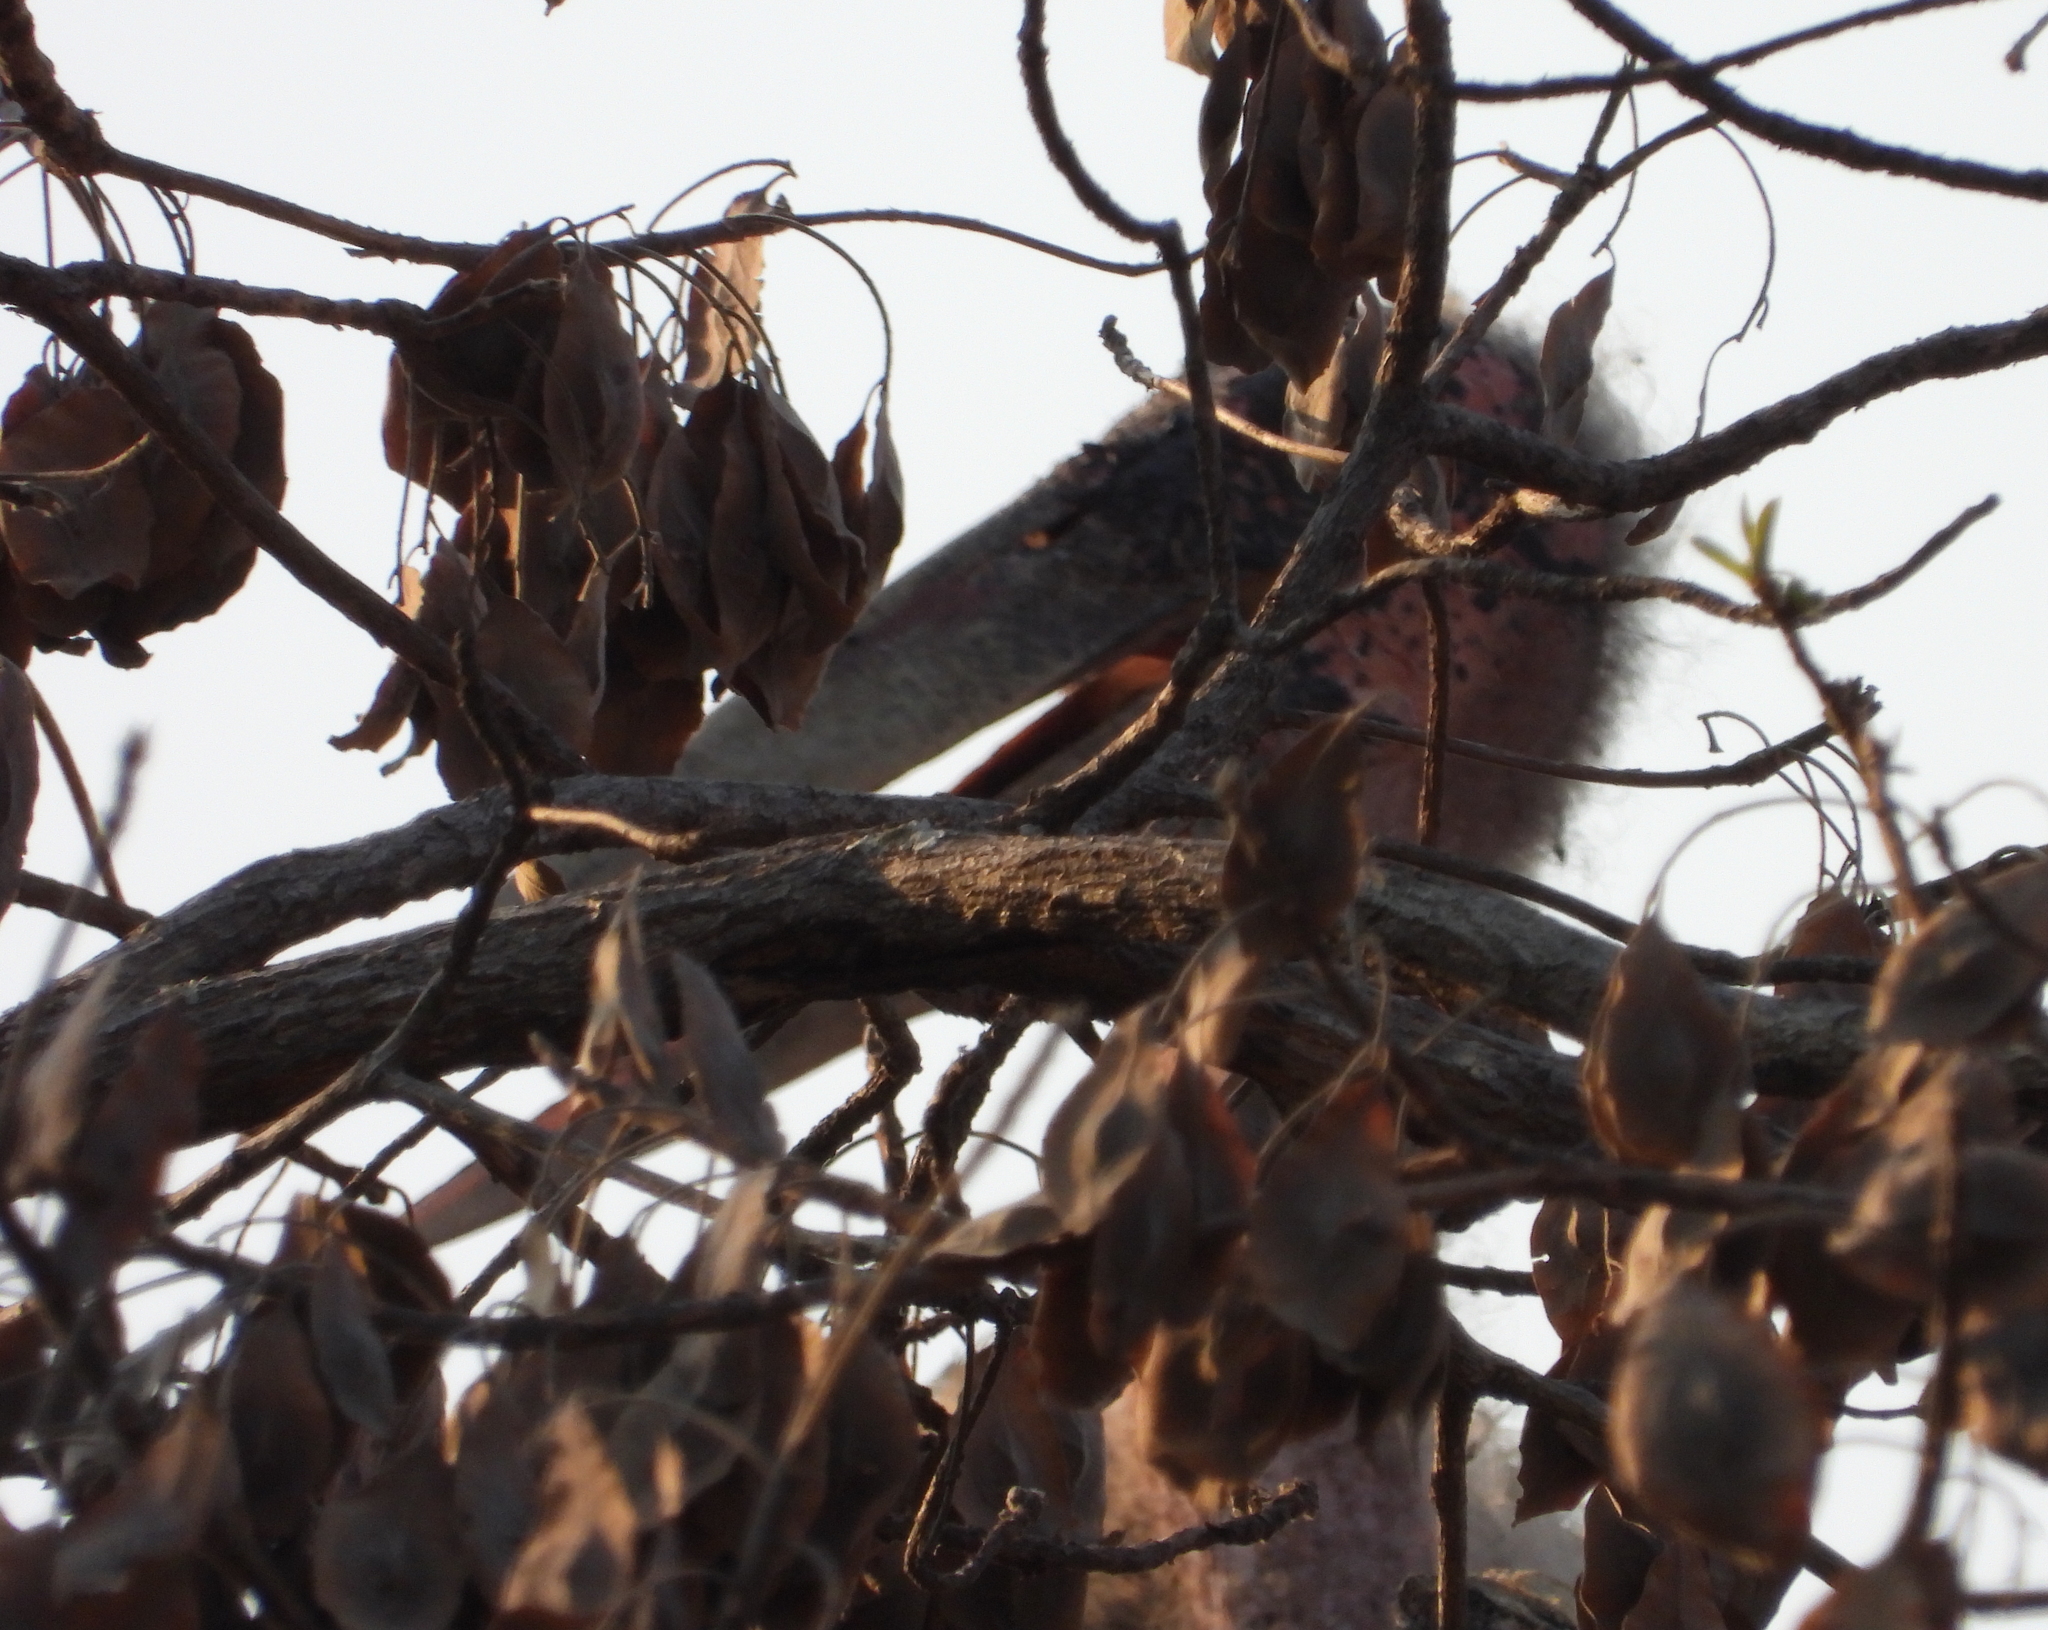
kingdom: Animalia
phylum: Chordata
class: Aves
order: Ciconiiformes
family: Ciconiidae
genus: Leptoptilos
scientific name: Leptoptilos crumenifer
